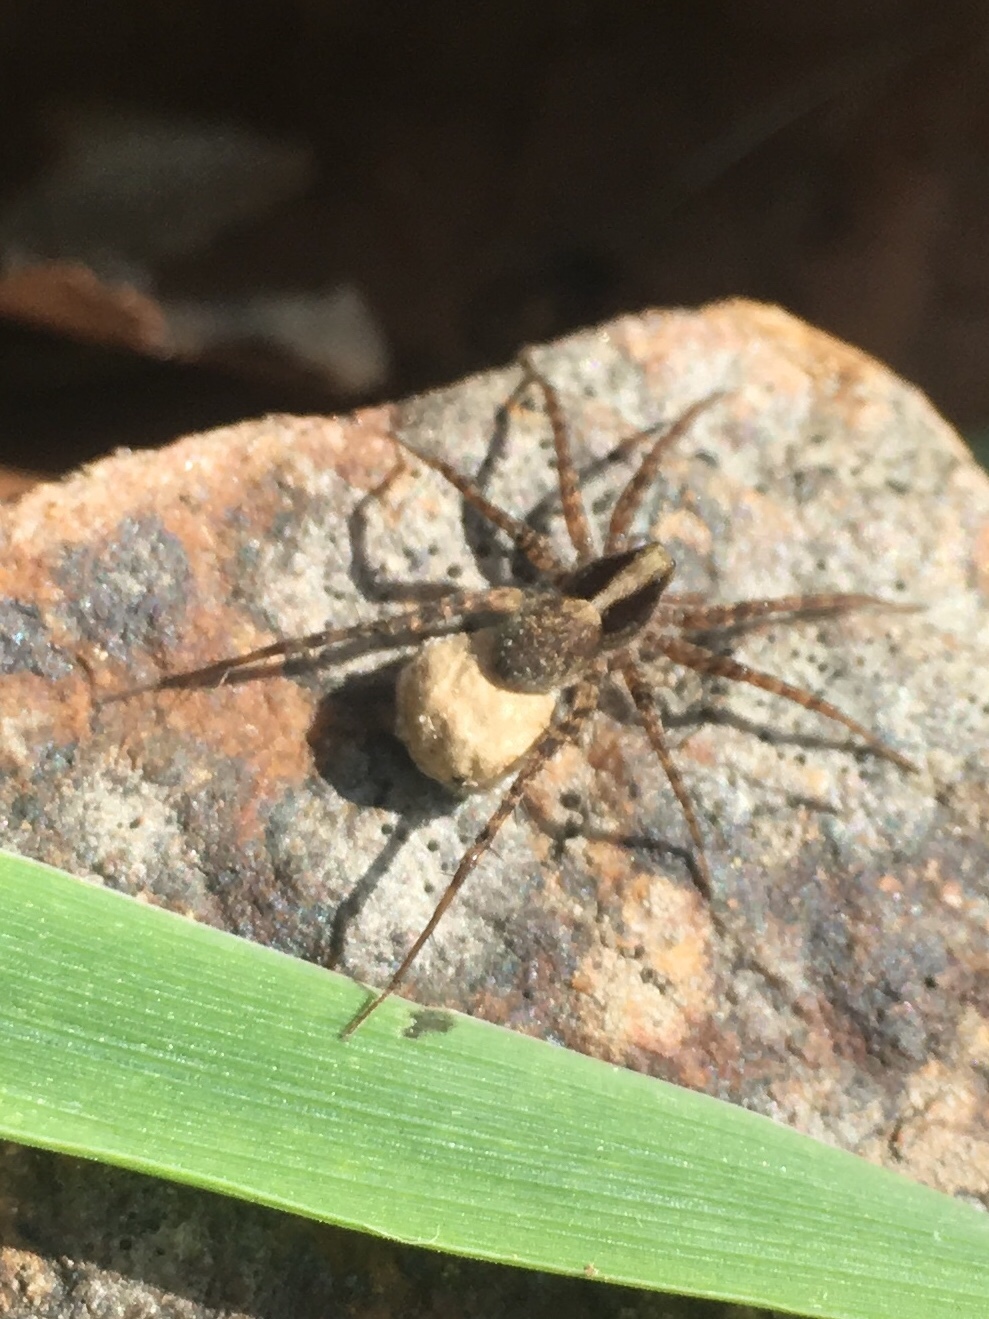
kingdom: Animalia
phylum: Arthropoda
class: Arachnida
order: Araneae
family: Lycosidae
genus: Pardosa
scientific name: Pardosa
